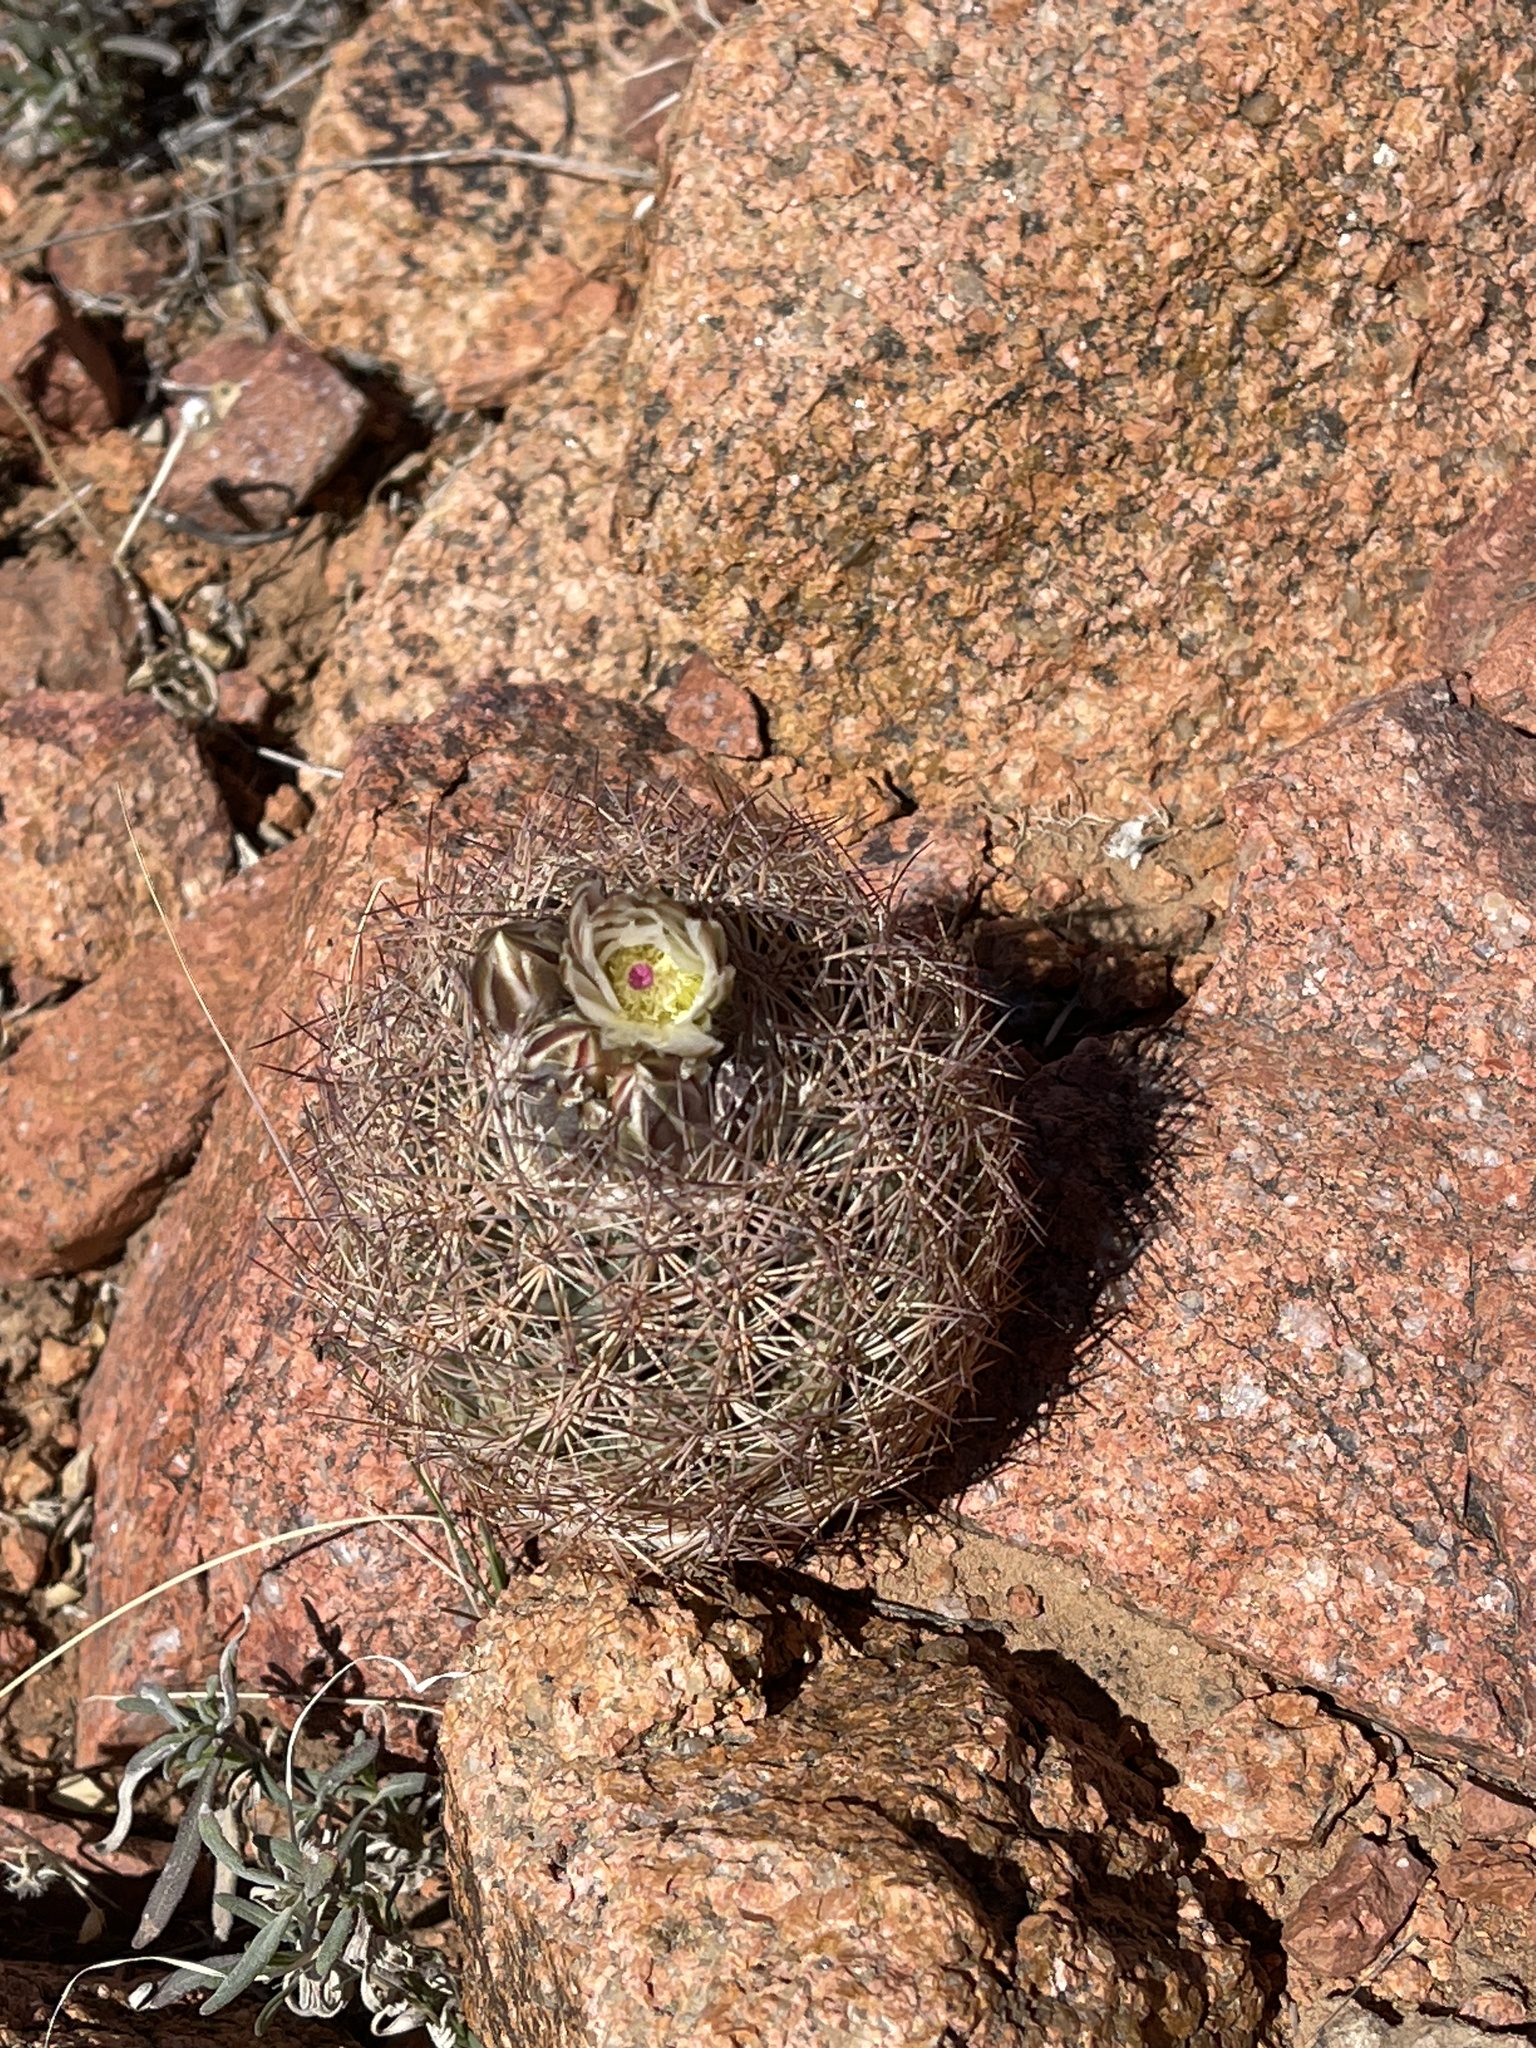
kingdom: Plantae
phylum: Tracheophyta
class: Magnoliopsida
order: Caryophyllales
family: Cactaceae
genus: Sclerocactus
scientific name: Sclerocactus intertextus
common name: White fish-hook cactus
